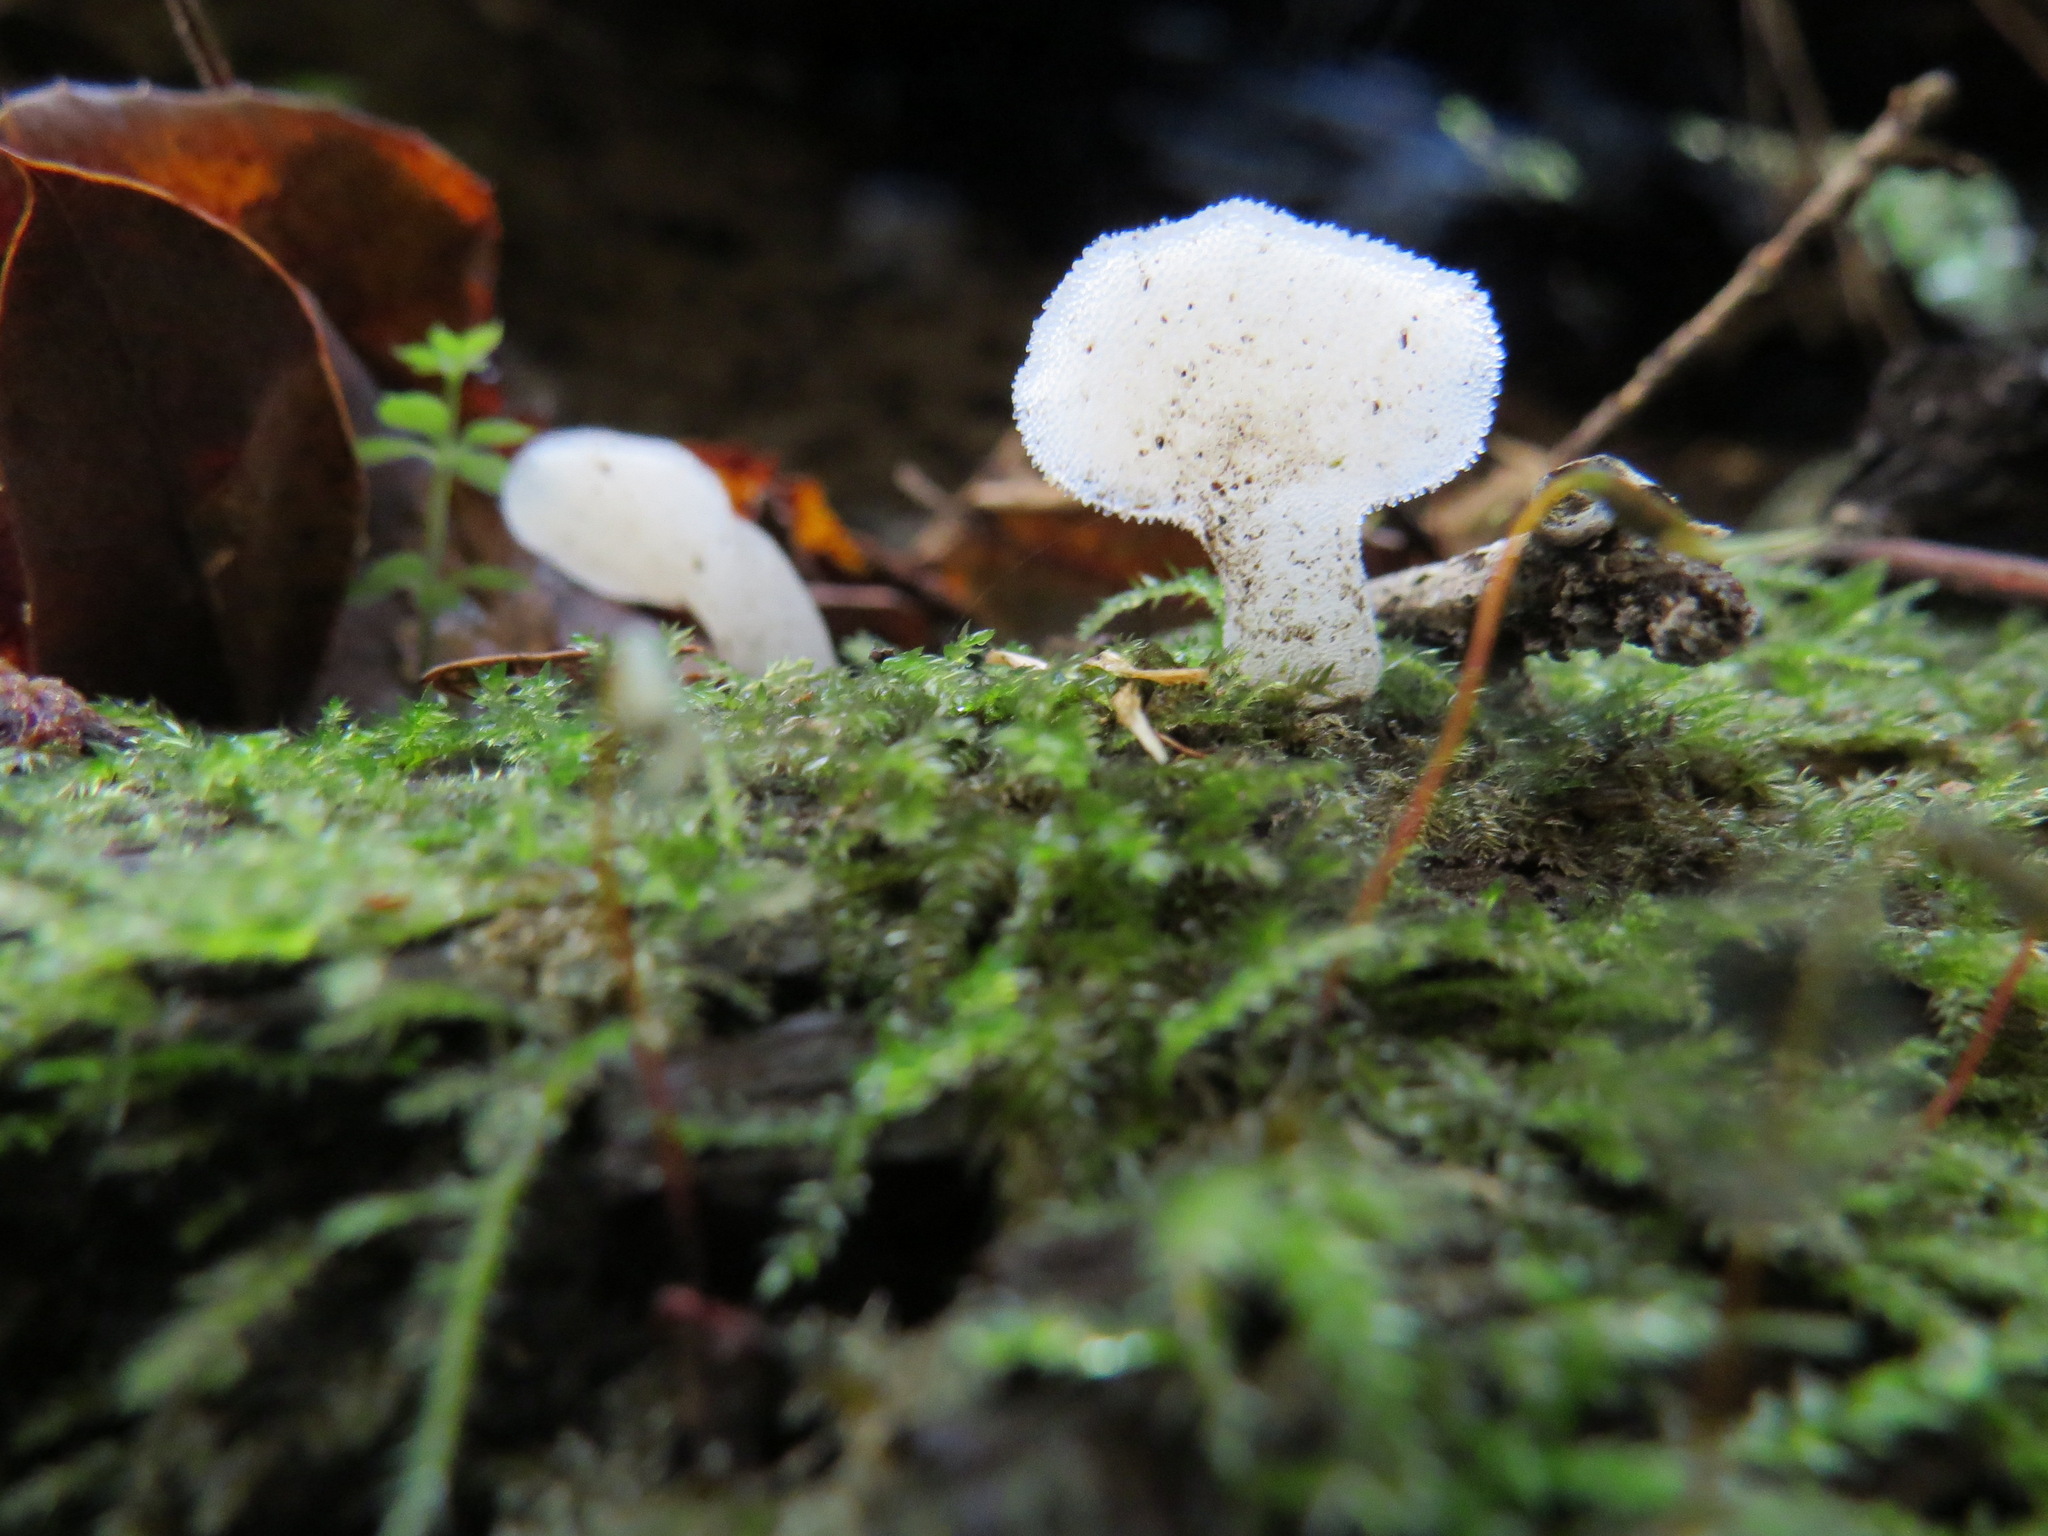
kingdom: Fungi
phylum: Basidiomycota
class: Agaricomycetes
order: Auriculariales
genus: Pseudohydnum
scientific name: Pseudohydnum gelatinosum
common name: Jelly tongue
